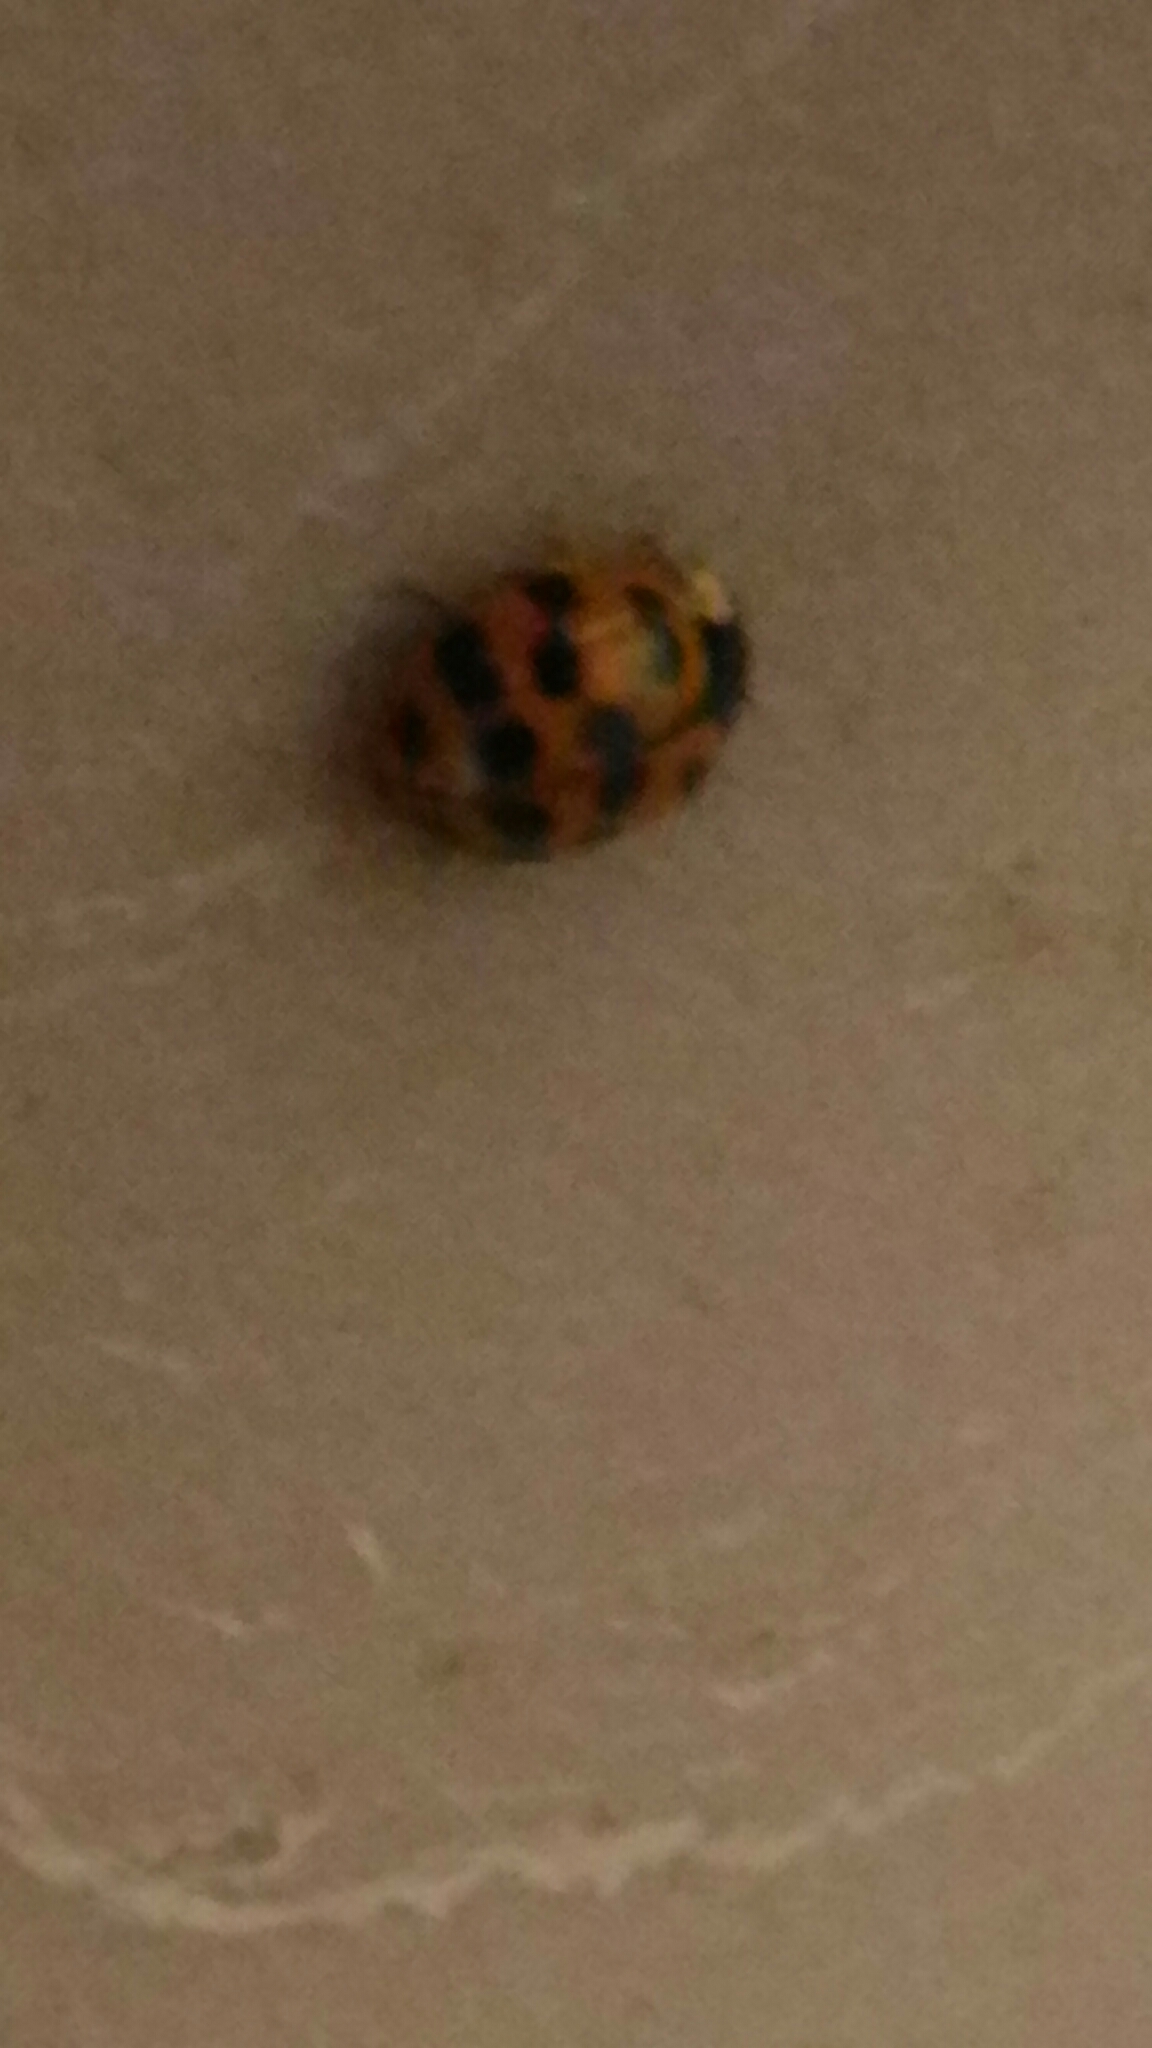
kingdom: Animalia
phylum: Arthropoda
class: Insecta
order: Coleoptera
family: Coccinellidae
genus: Harmonia
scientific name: Harmonia axyridis
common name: Harlequin ladybird
